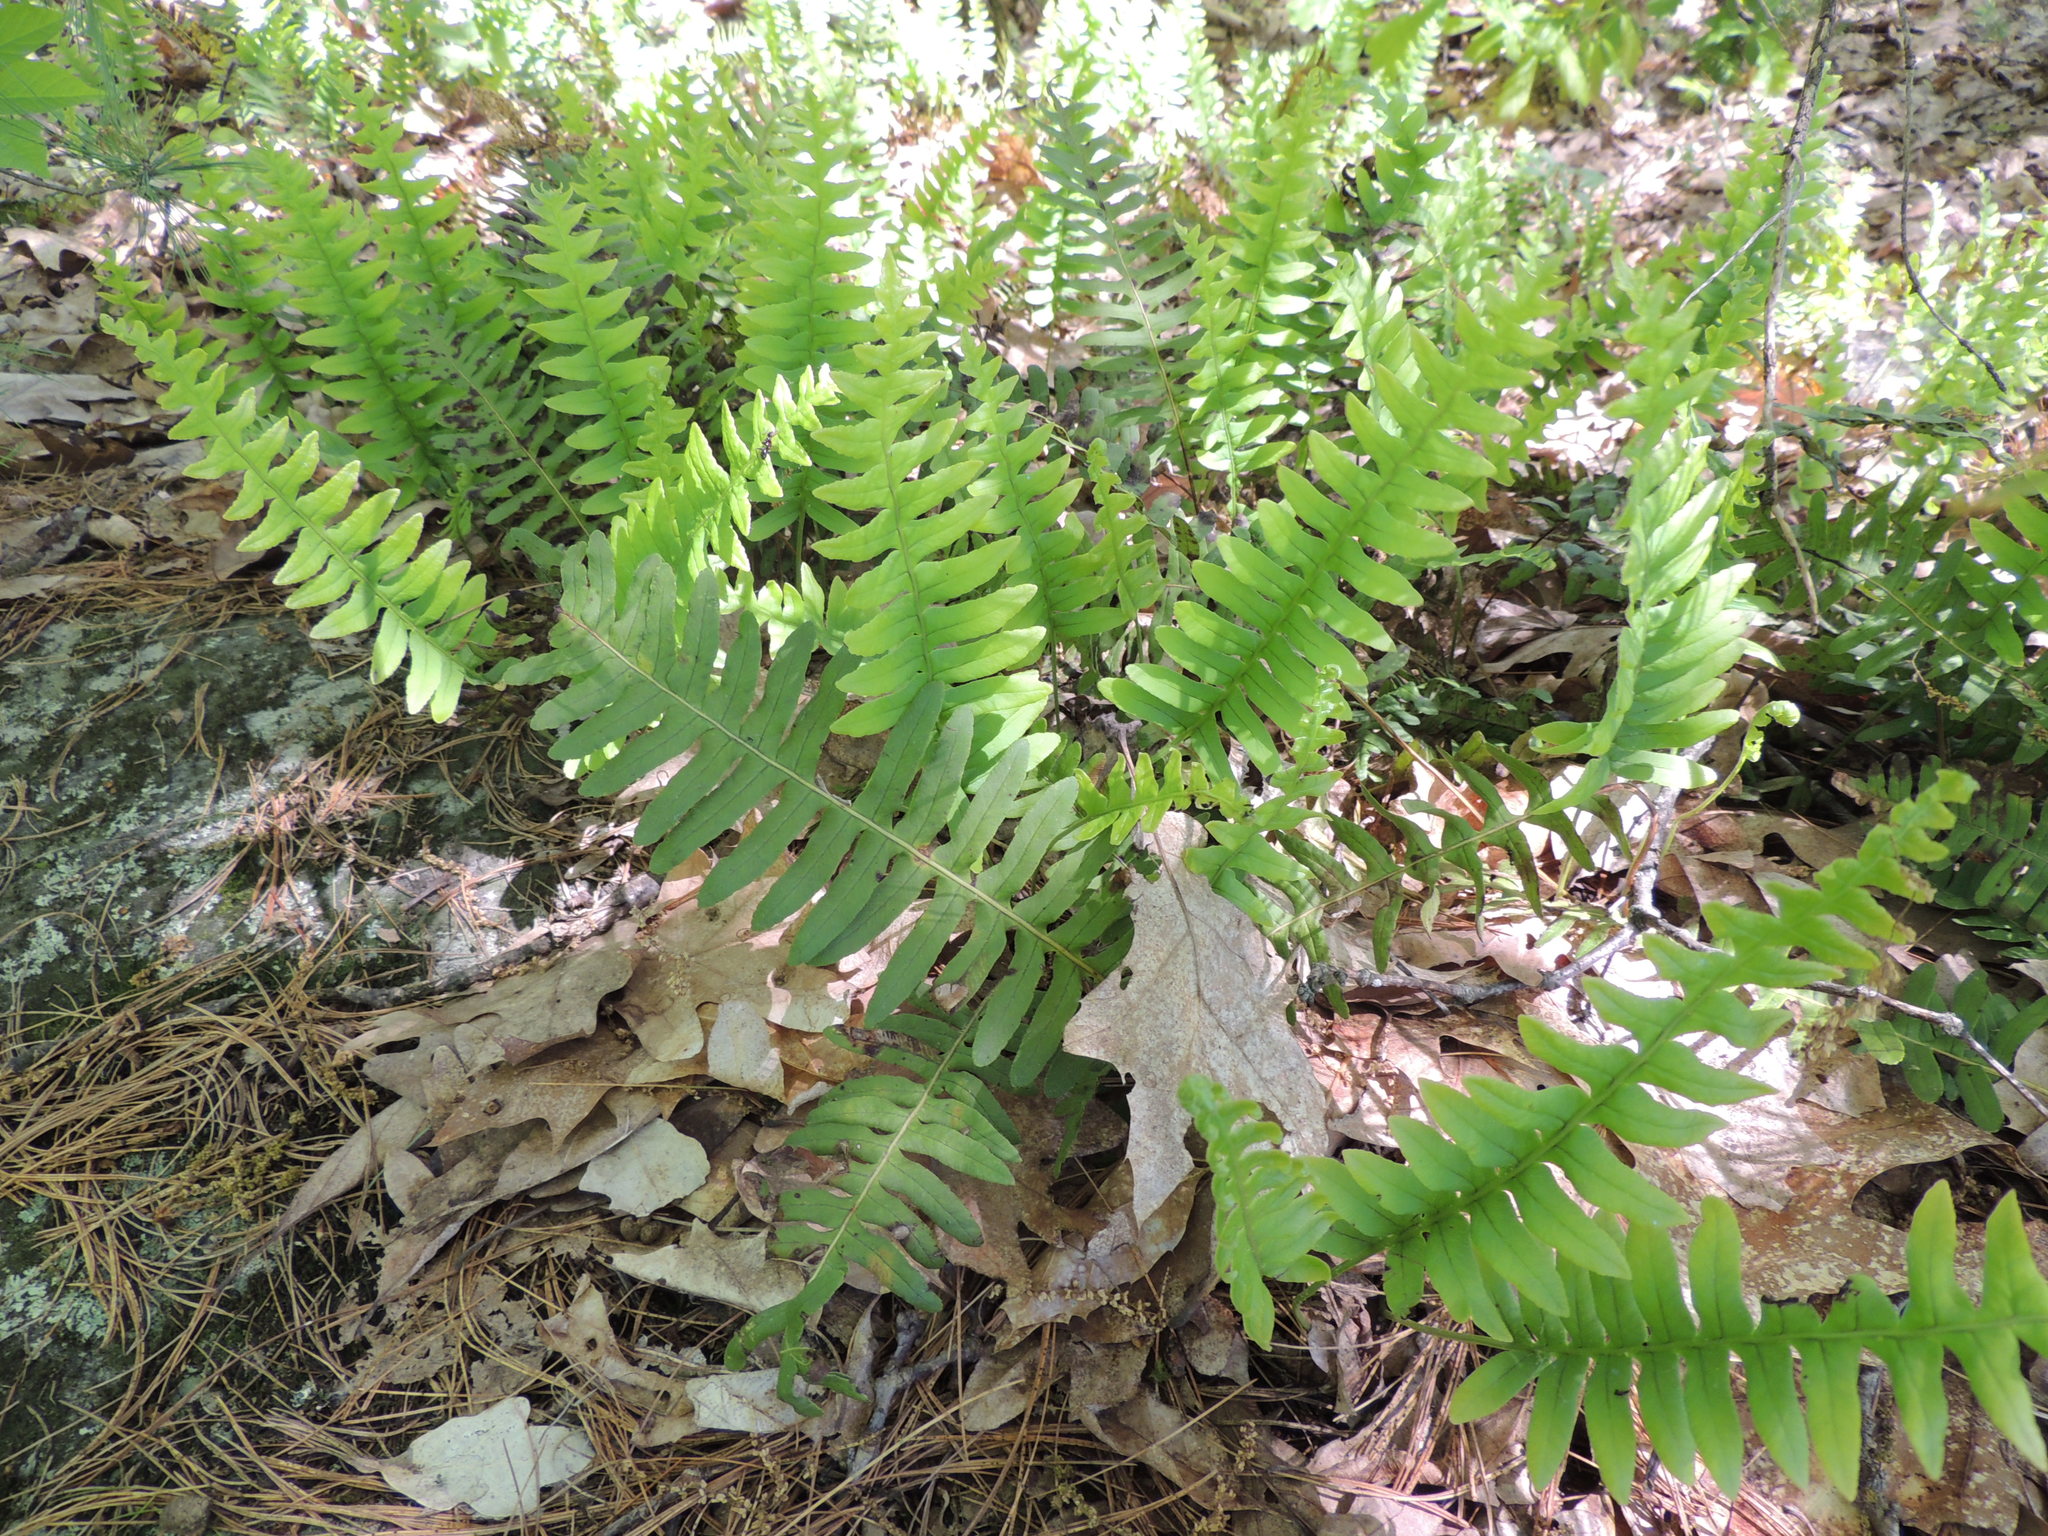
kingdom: Plantae
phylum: Tracheophyta
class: Polypodiopsida
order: Polypodiales
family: Polypodiaceae
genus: Polypodium
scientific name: Polypodium virginianum
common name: American wall fern
